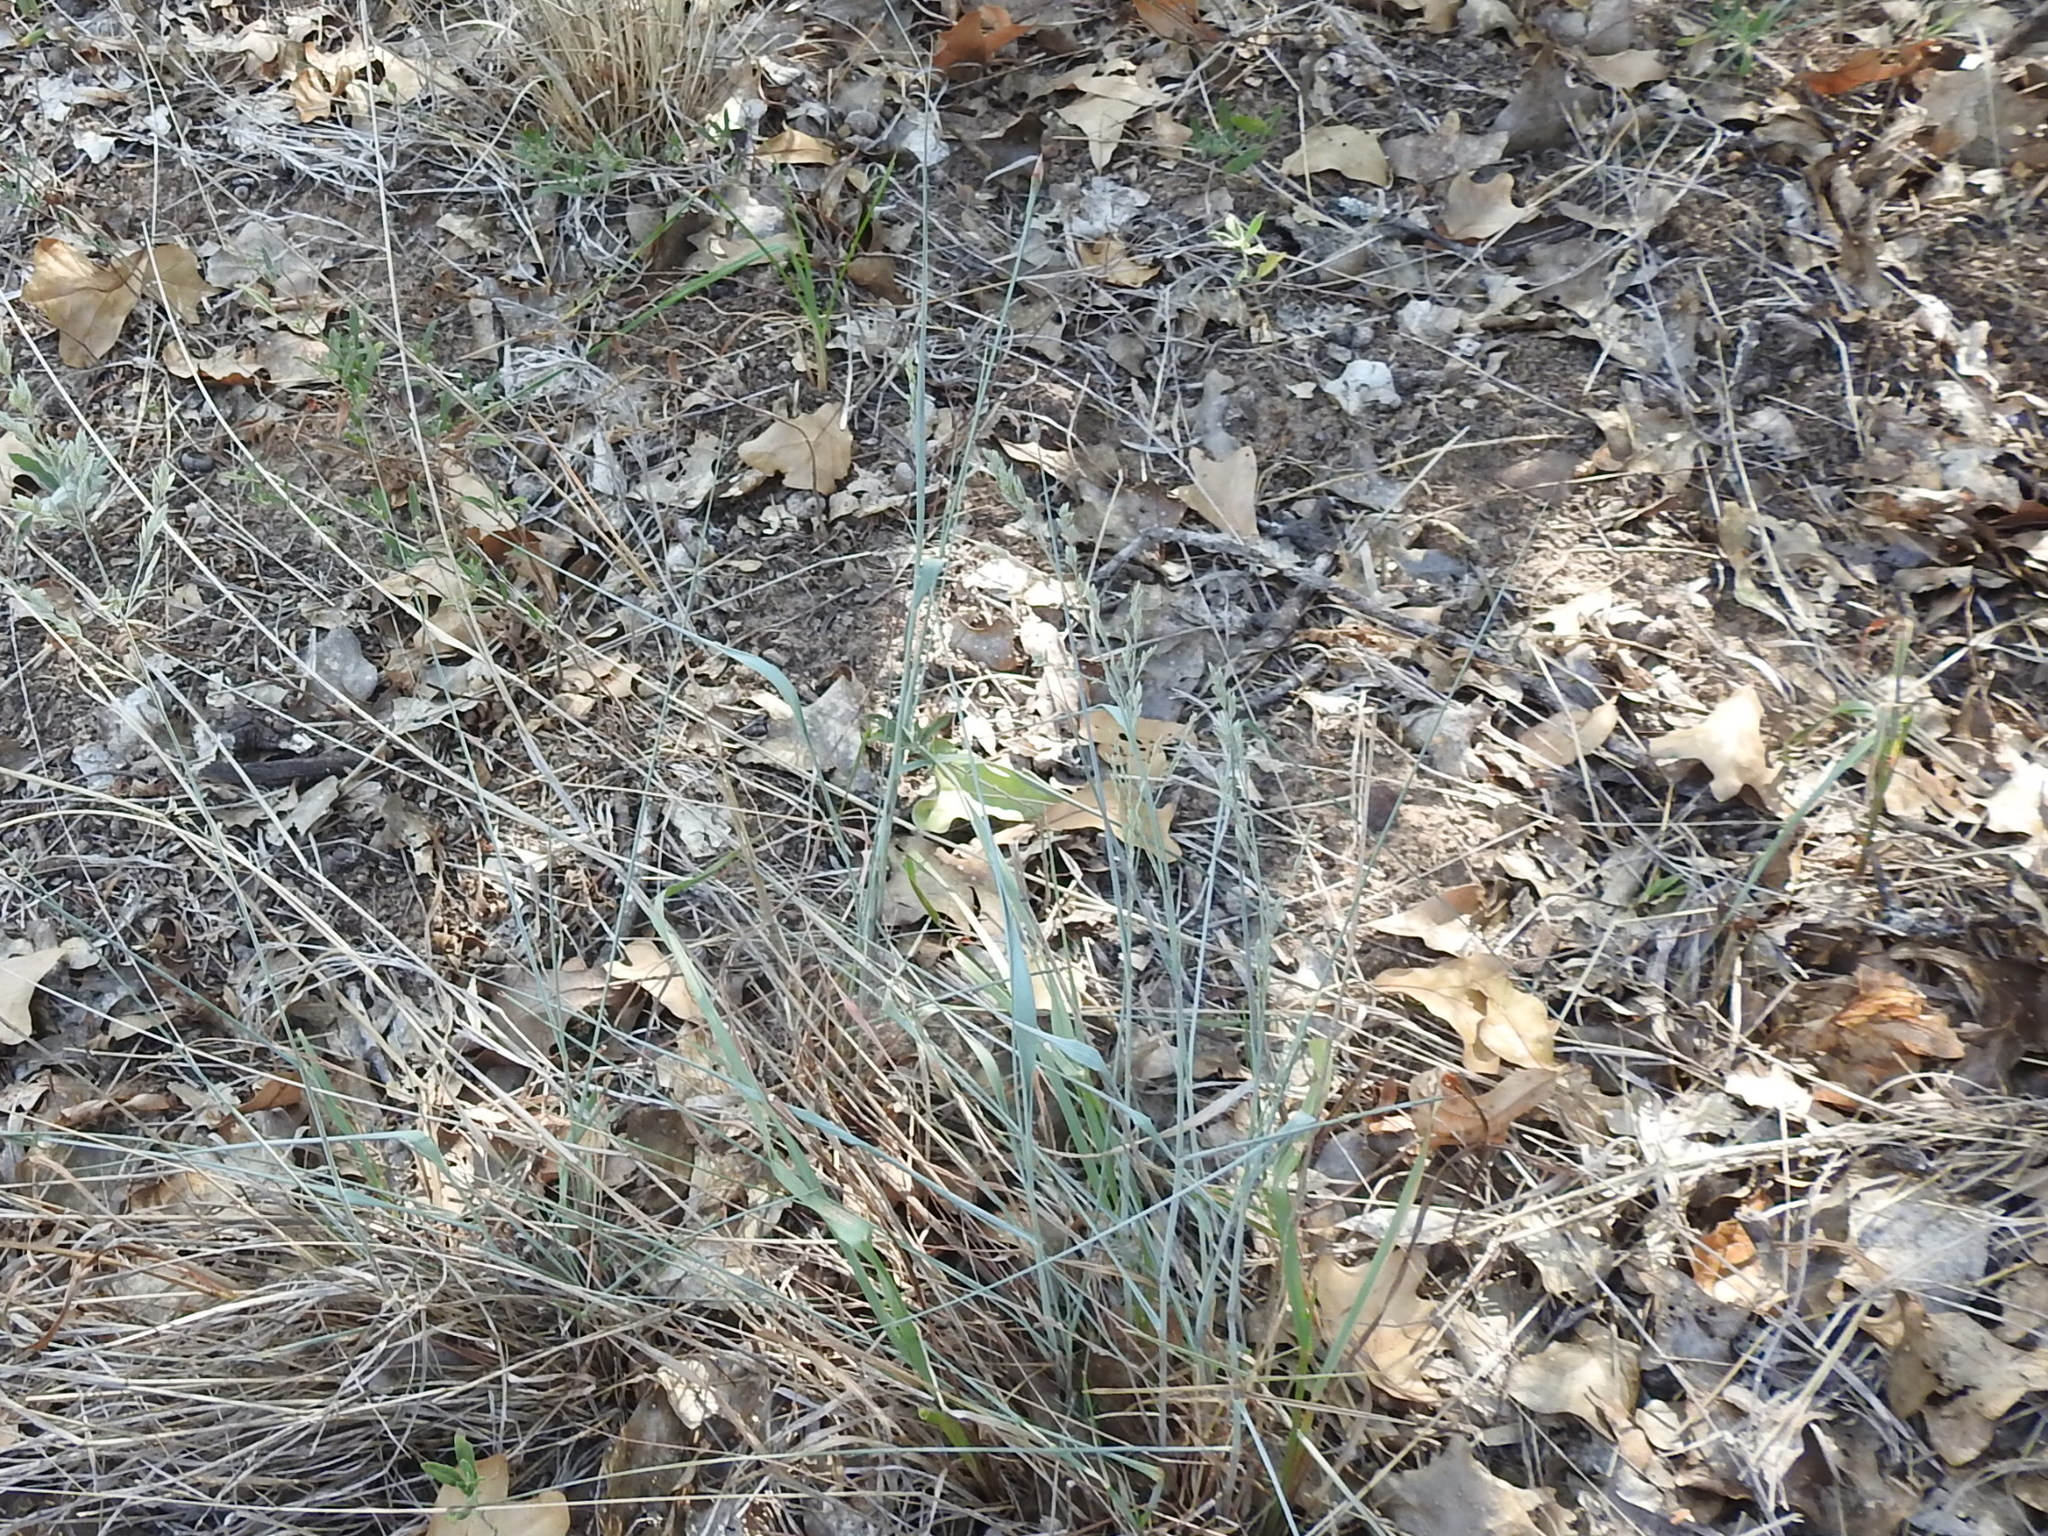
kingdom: Plantae
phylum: Tracheophyta
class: Liliopsida
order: Poales
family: Poaceae
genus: Eragrostis
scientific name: Eragrostis secundiflora
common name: Red love grass
